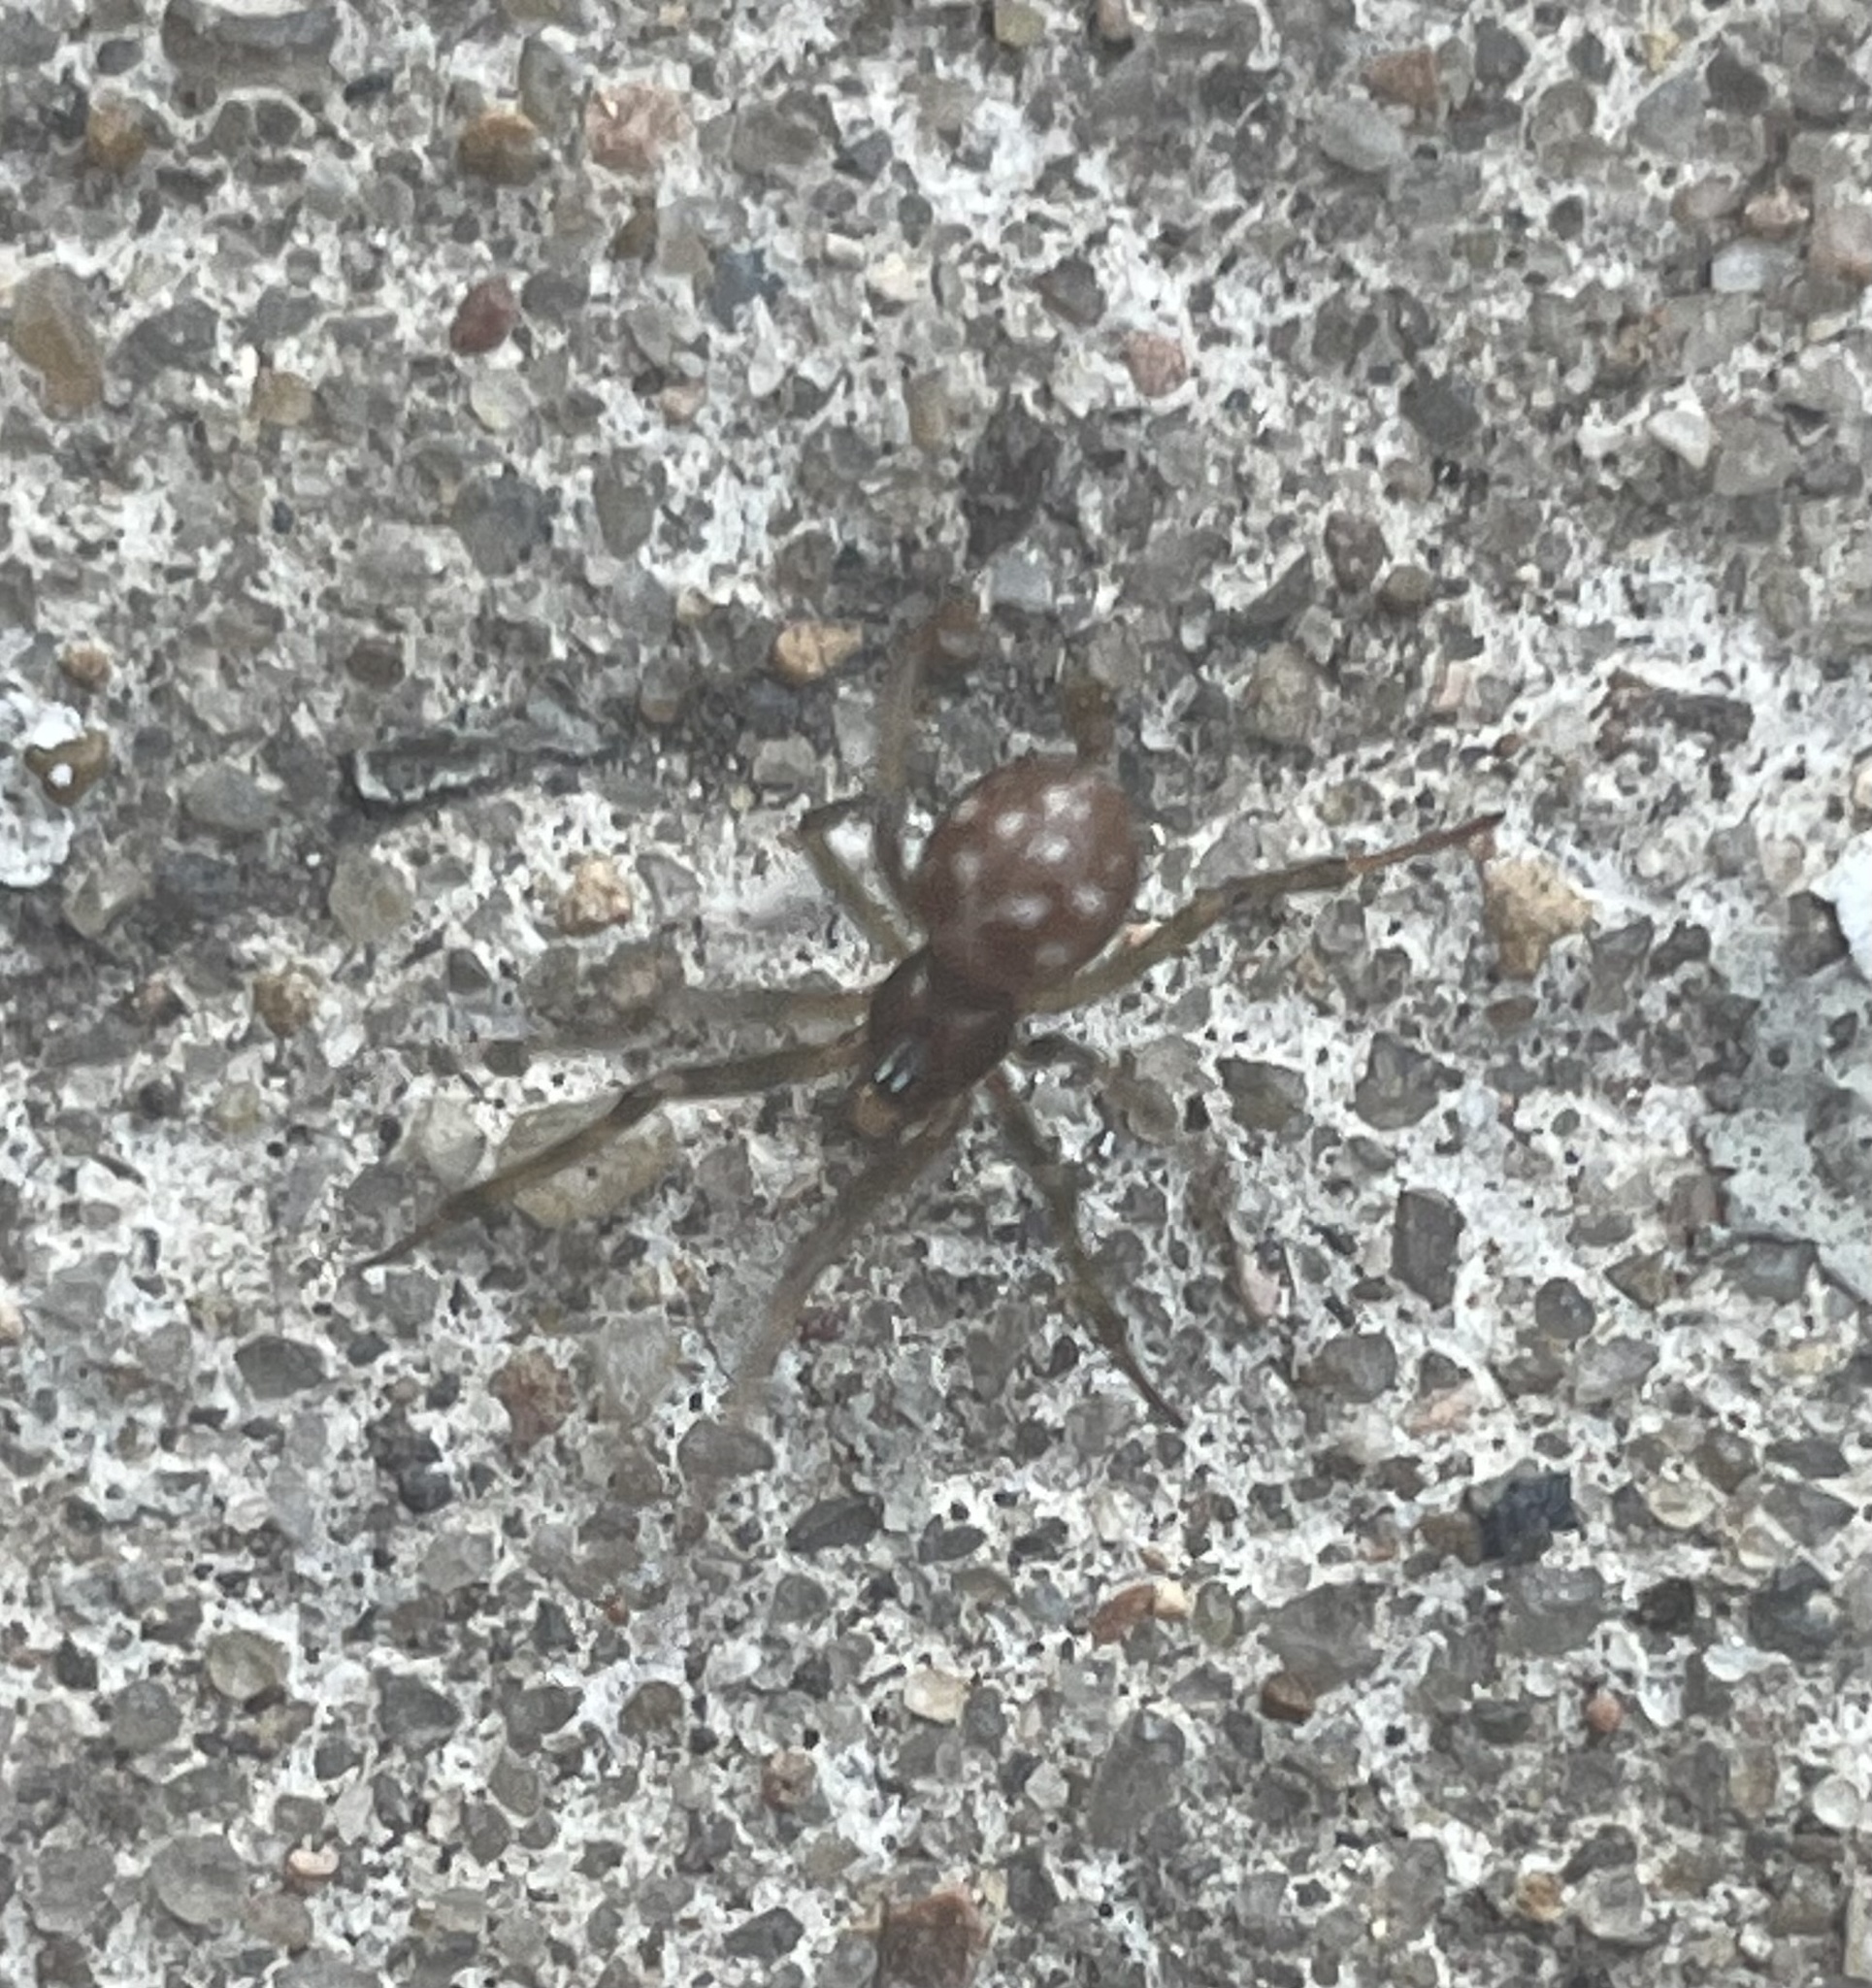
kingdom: Animalia
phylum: Arthropoda
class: Arachnida
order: Araneae
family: Theridiidae
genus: Steatoda
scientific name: Steatoda triangulosa
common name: Triangulate bud spider
